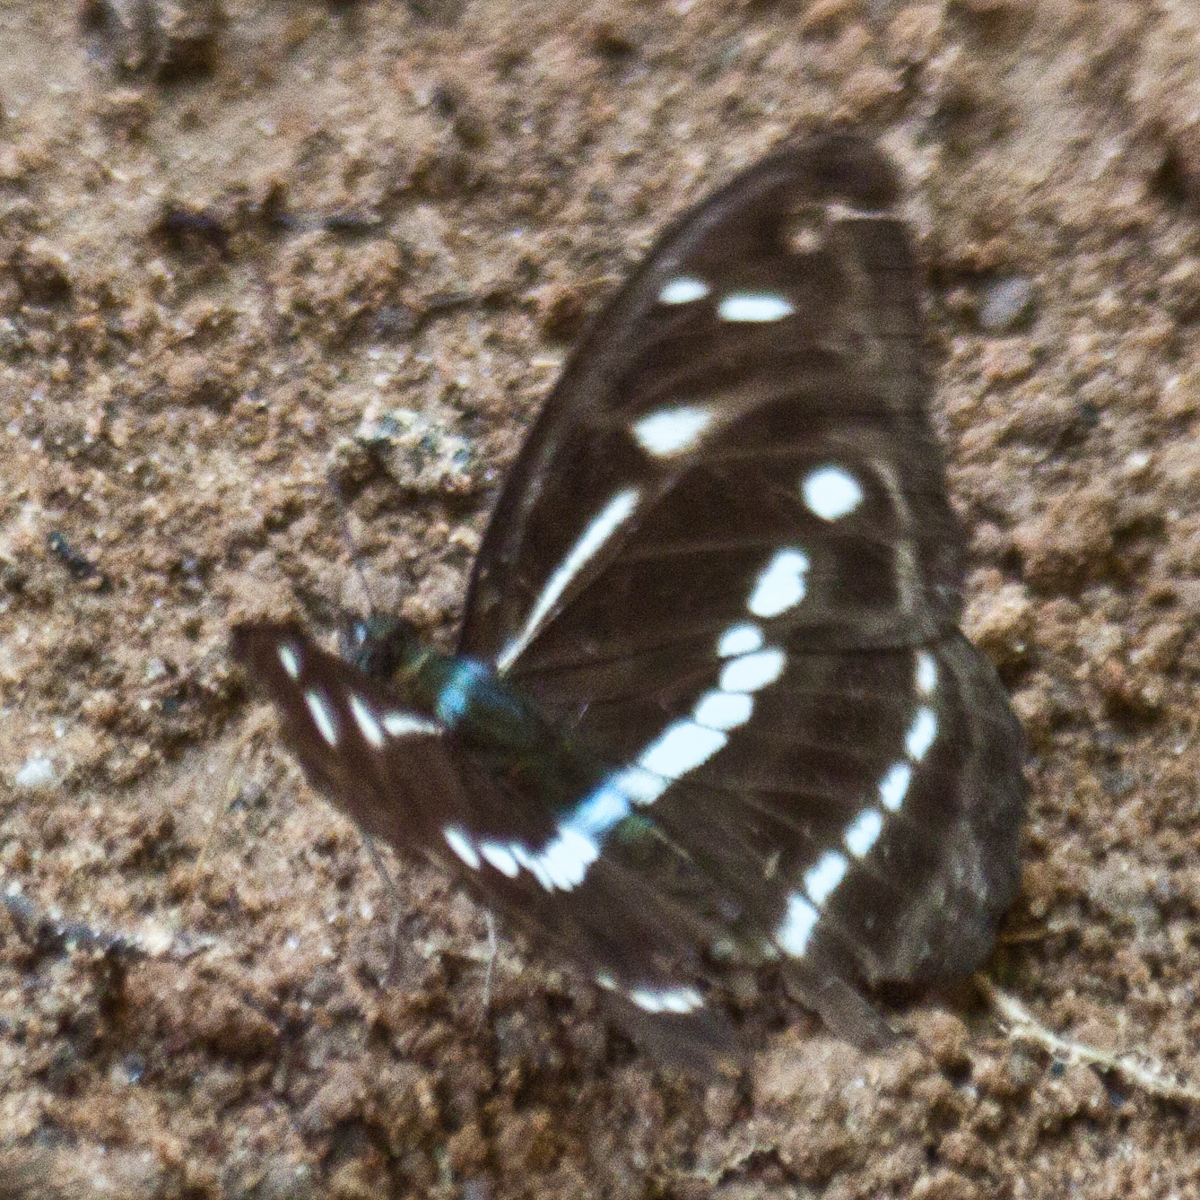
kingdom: Animalia
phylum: Arthropoda
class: Insecta
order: Lepidoptera
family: Nymphalidae
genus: Parathyma
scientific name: Parathyma kanwa
